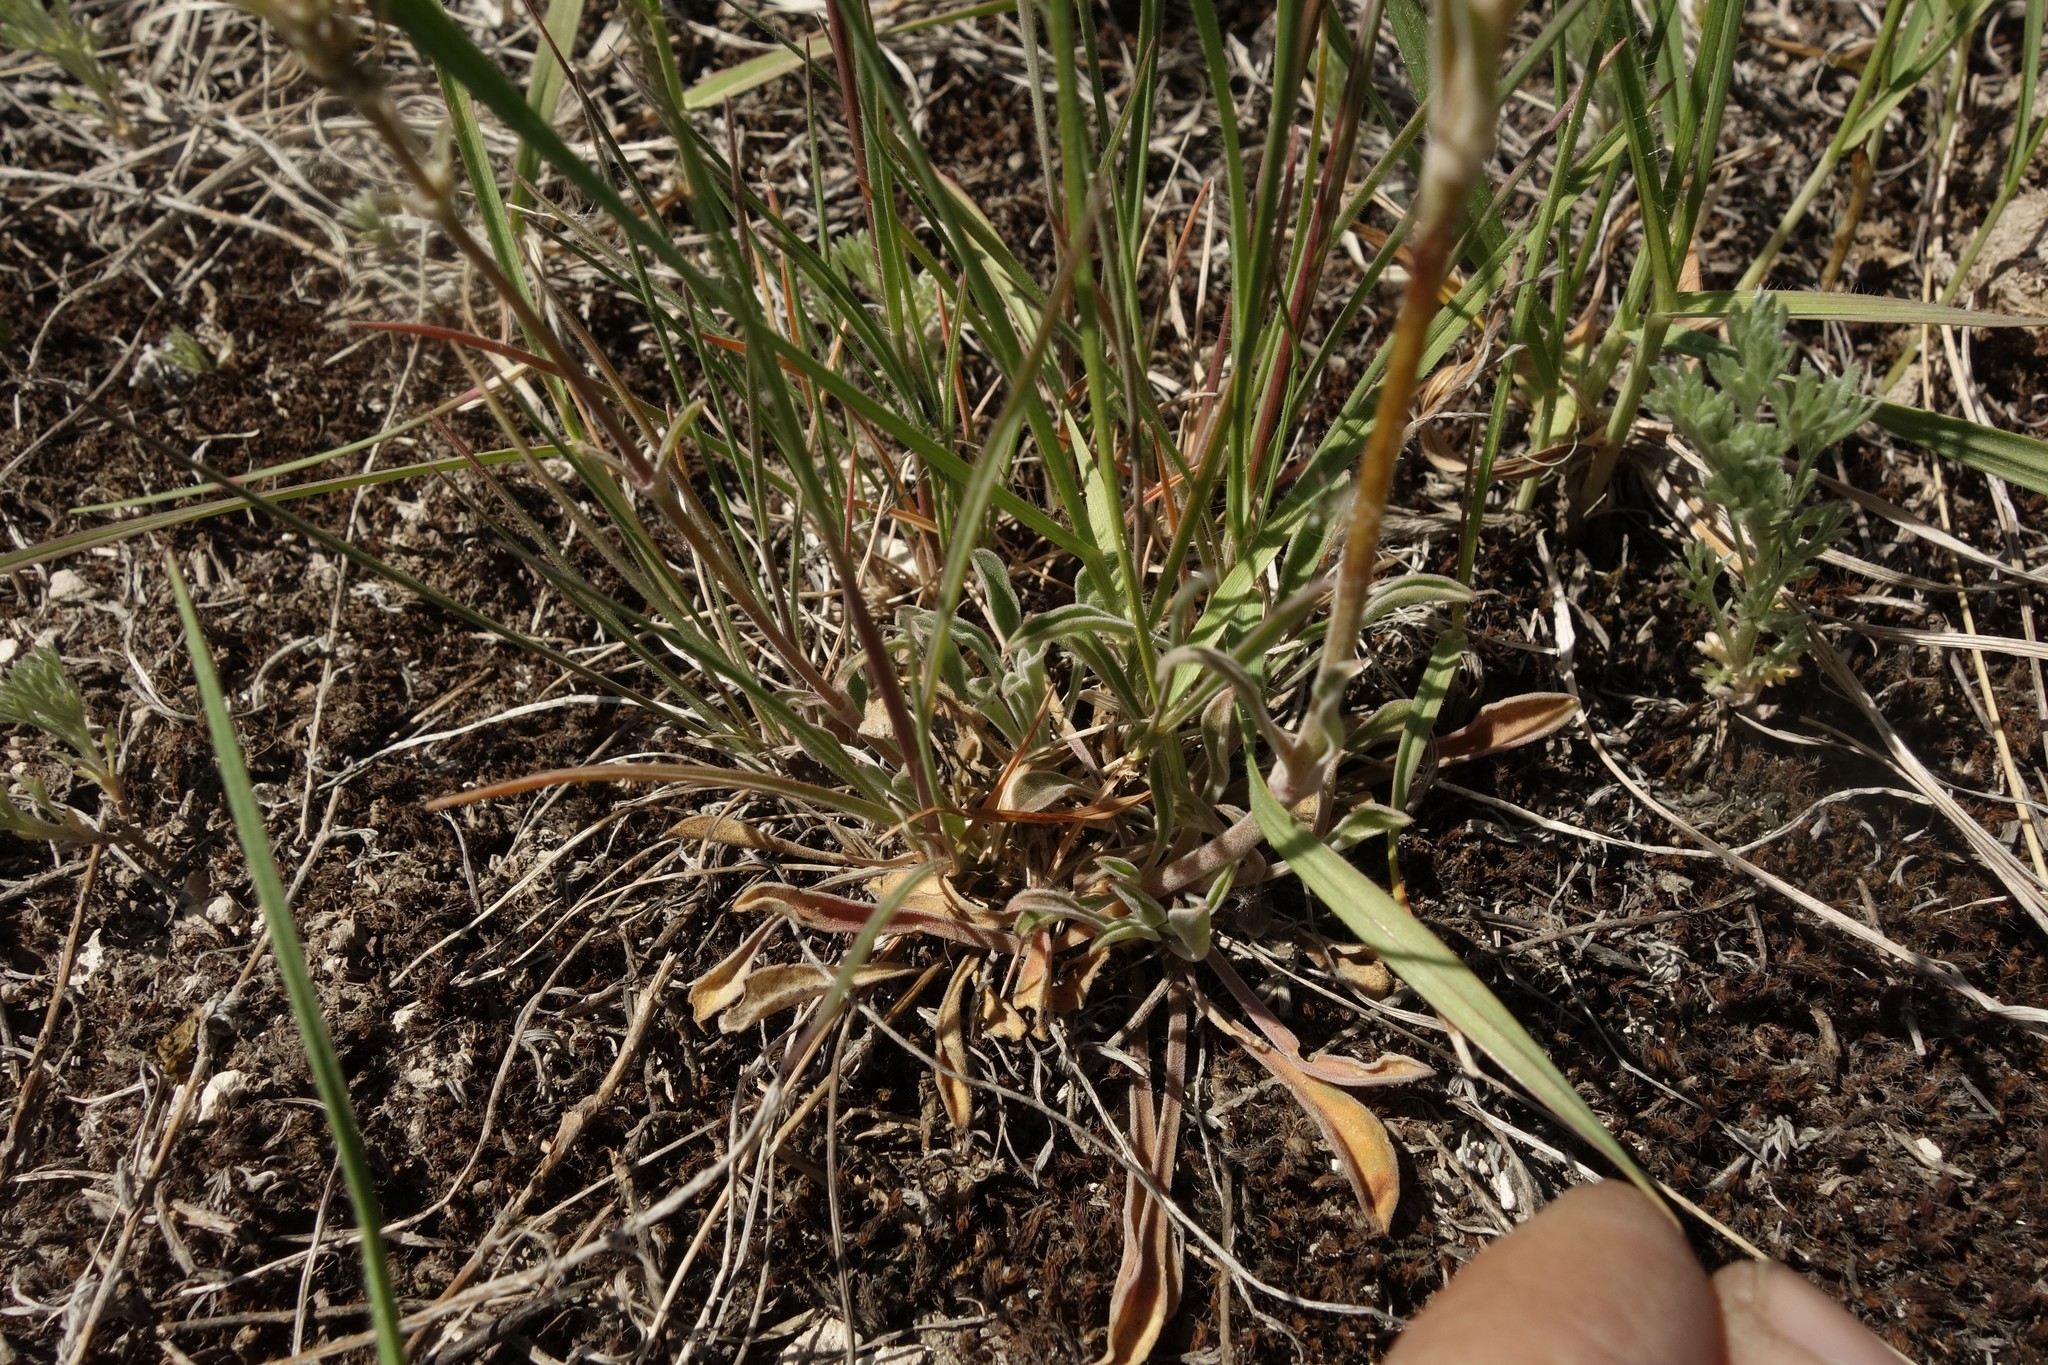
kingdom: Plantae
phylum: Tracheophyta
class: Magnoliopsida
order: Caryophyllales
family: Caryophyllaceae
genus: Silene
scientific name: Silene hellmannii
